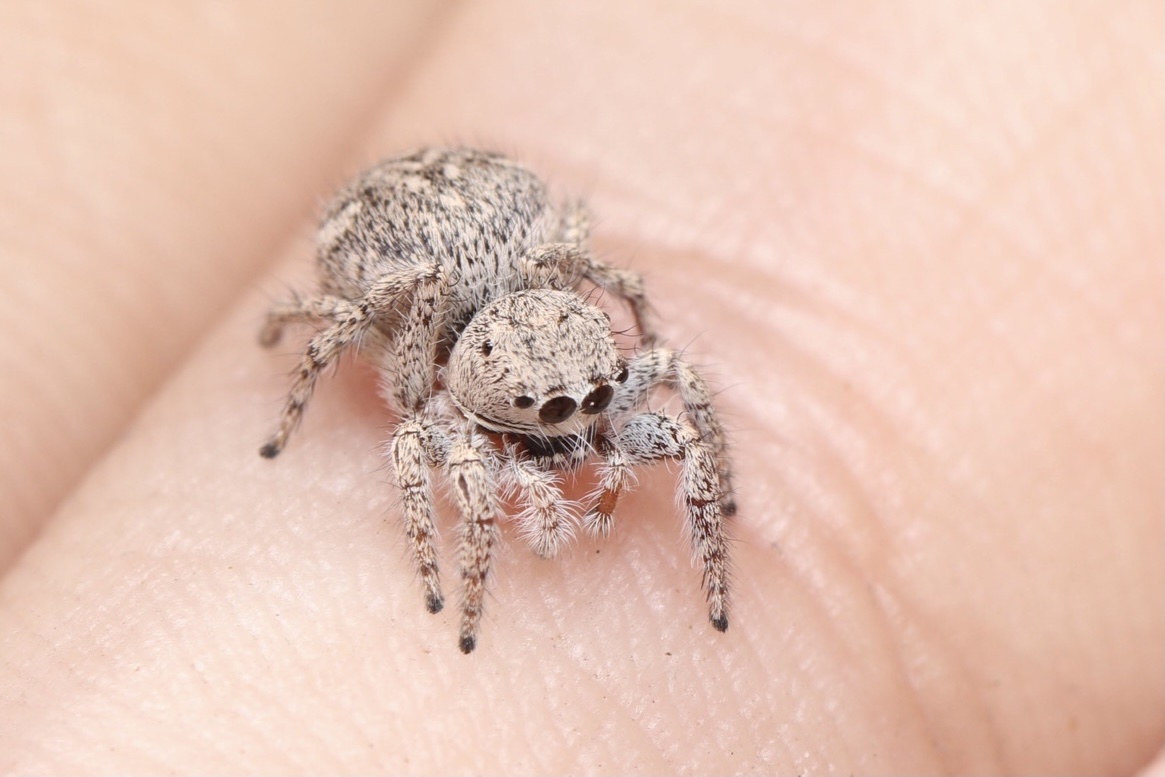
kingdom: Animalia
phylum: Arthropoda
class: Arachnida
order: Araneae
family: Salticidae
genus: Habronattus
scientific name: Habronattus hirsutus
